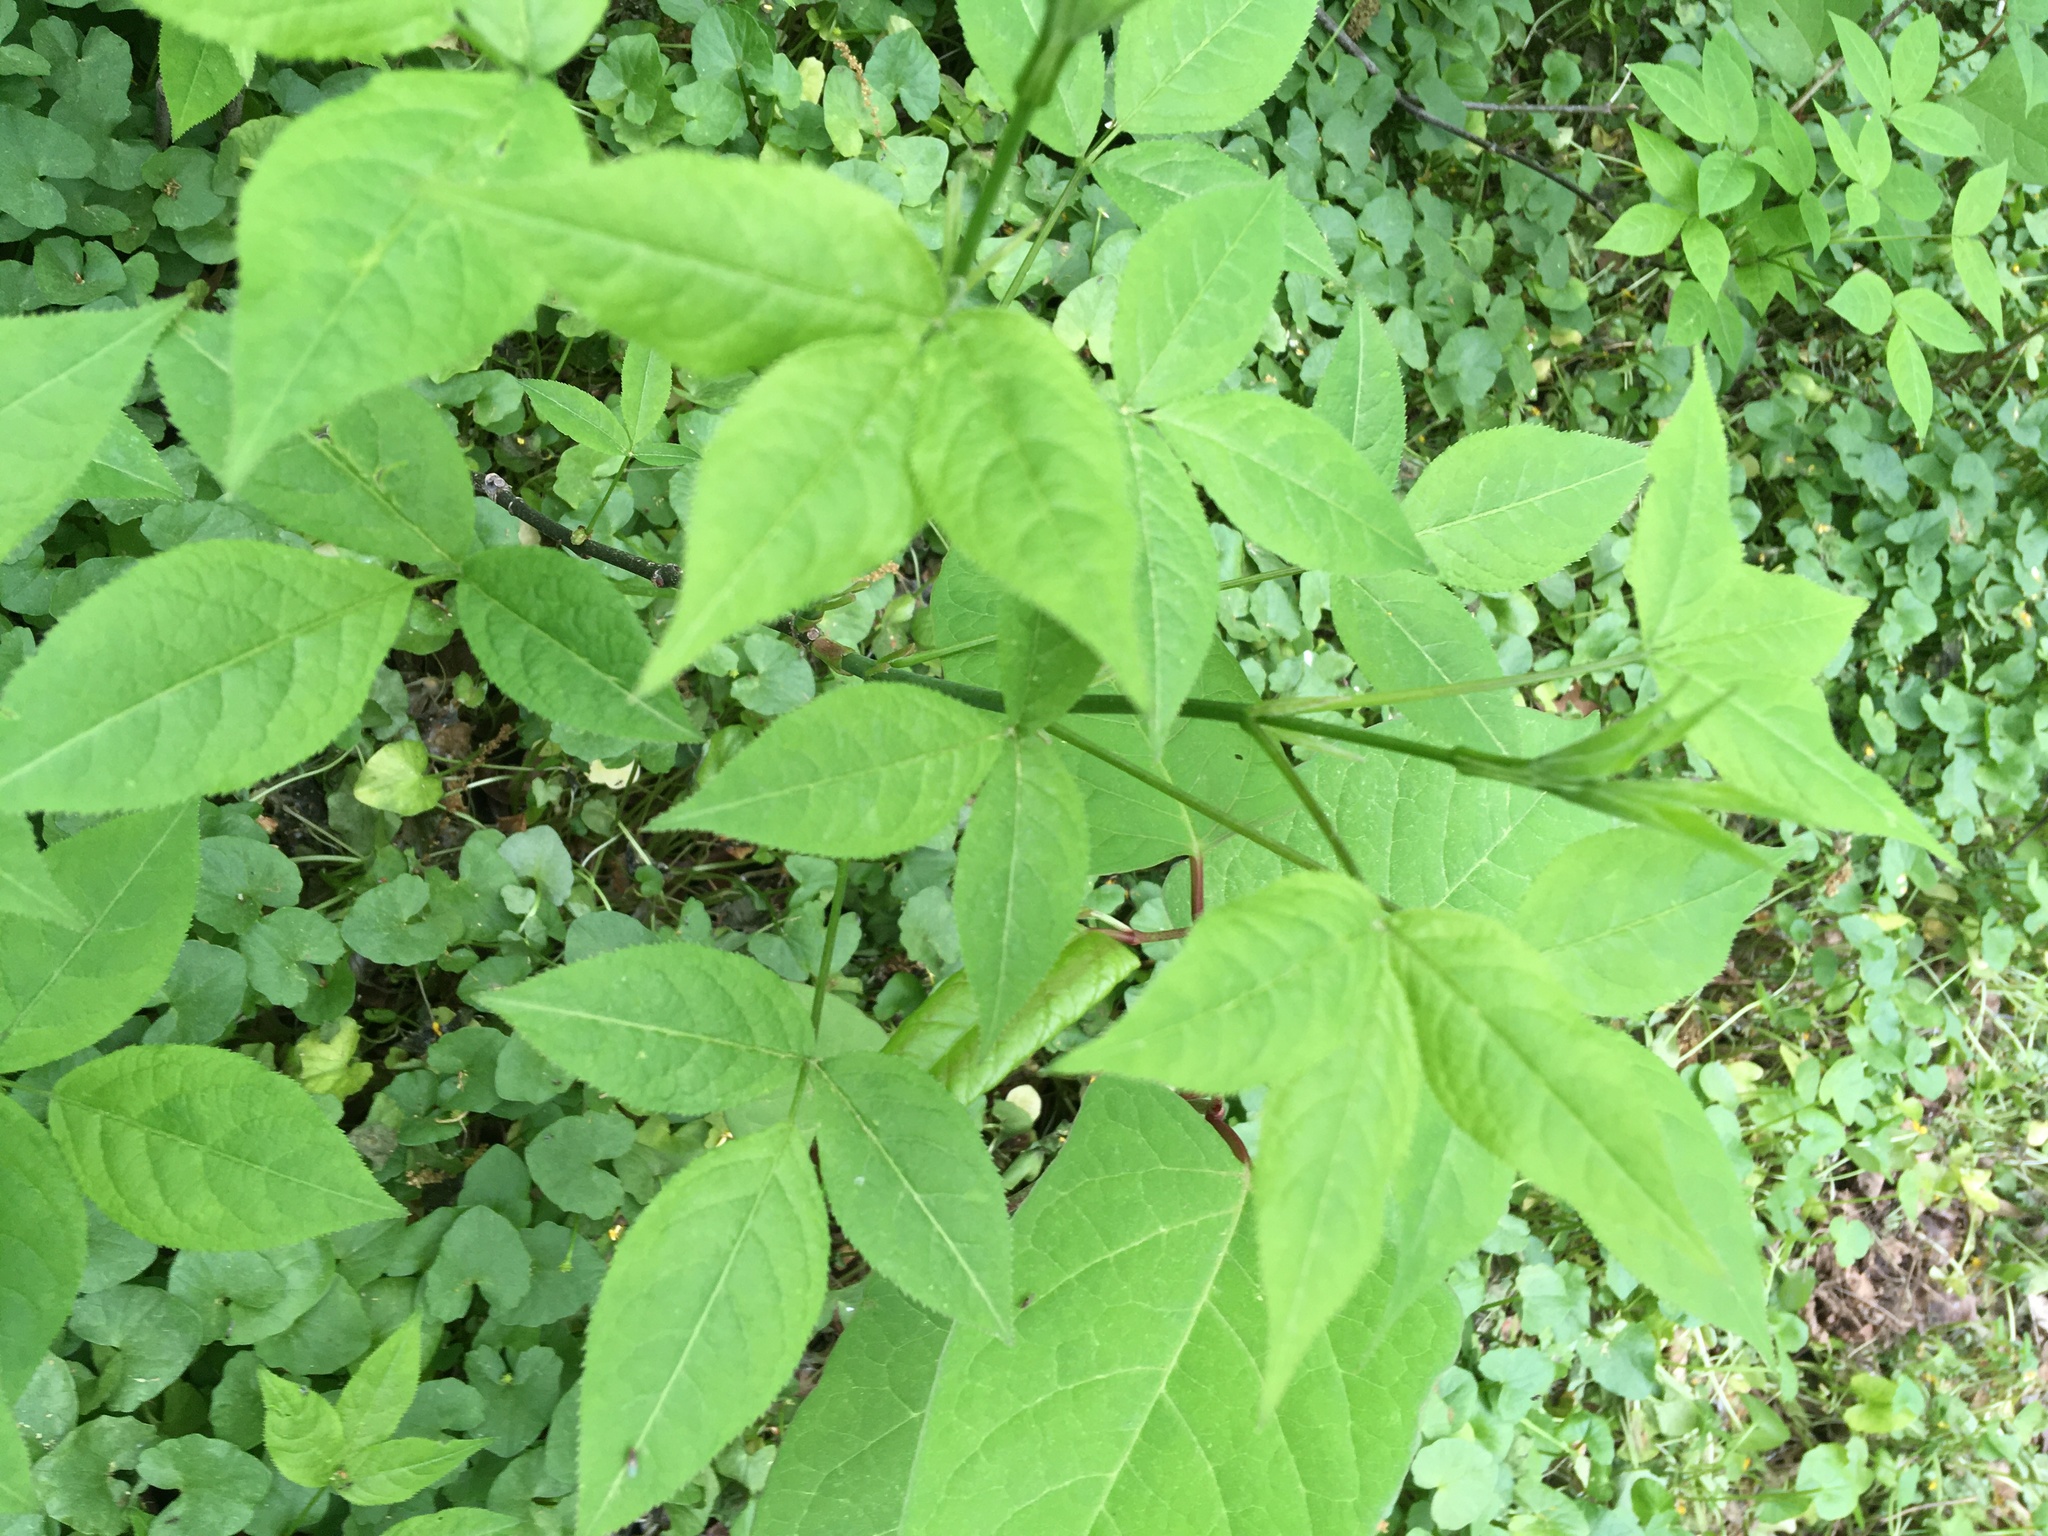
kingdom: Plantae
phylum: Tracheophyta
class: Magnoliopsida
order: Crossosomatales
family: Staphyleaceae
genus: Staphylea
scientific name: Staphylea trifolia
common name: American bladdernut
